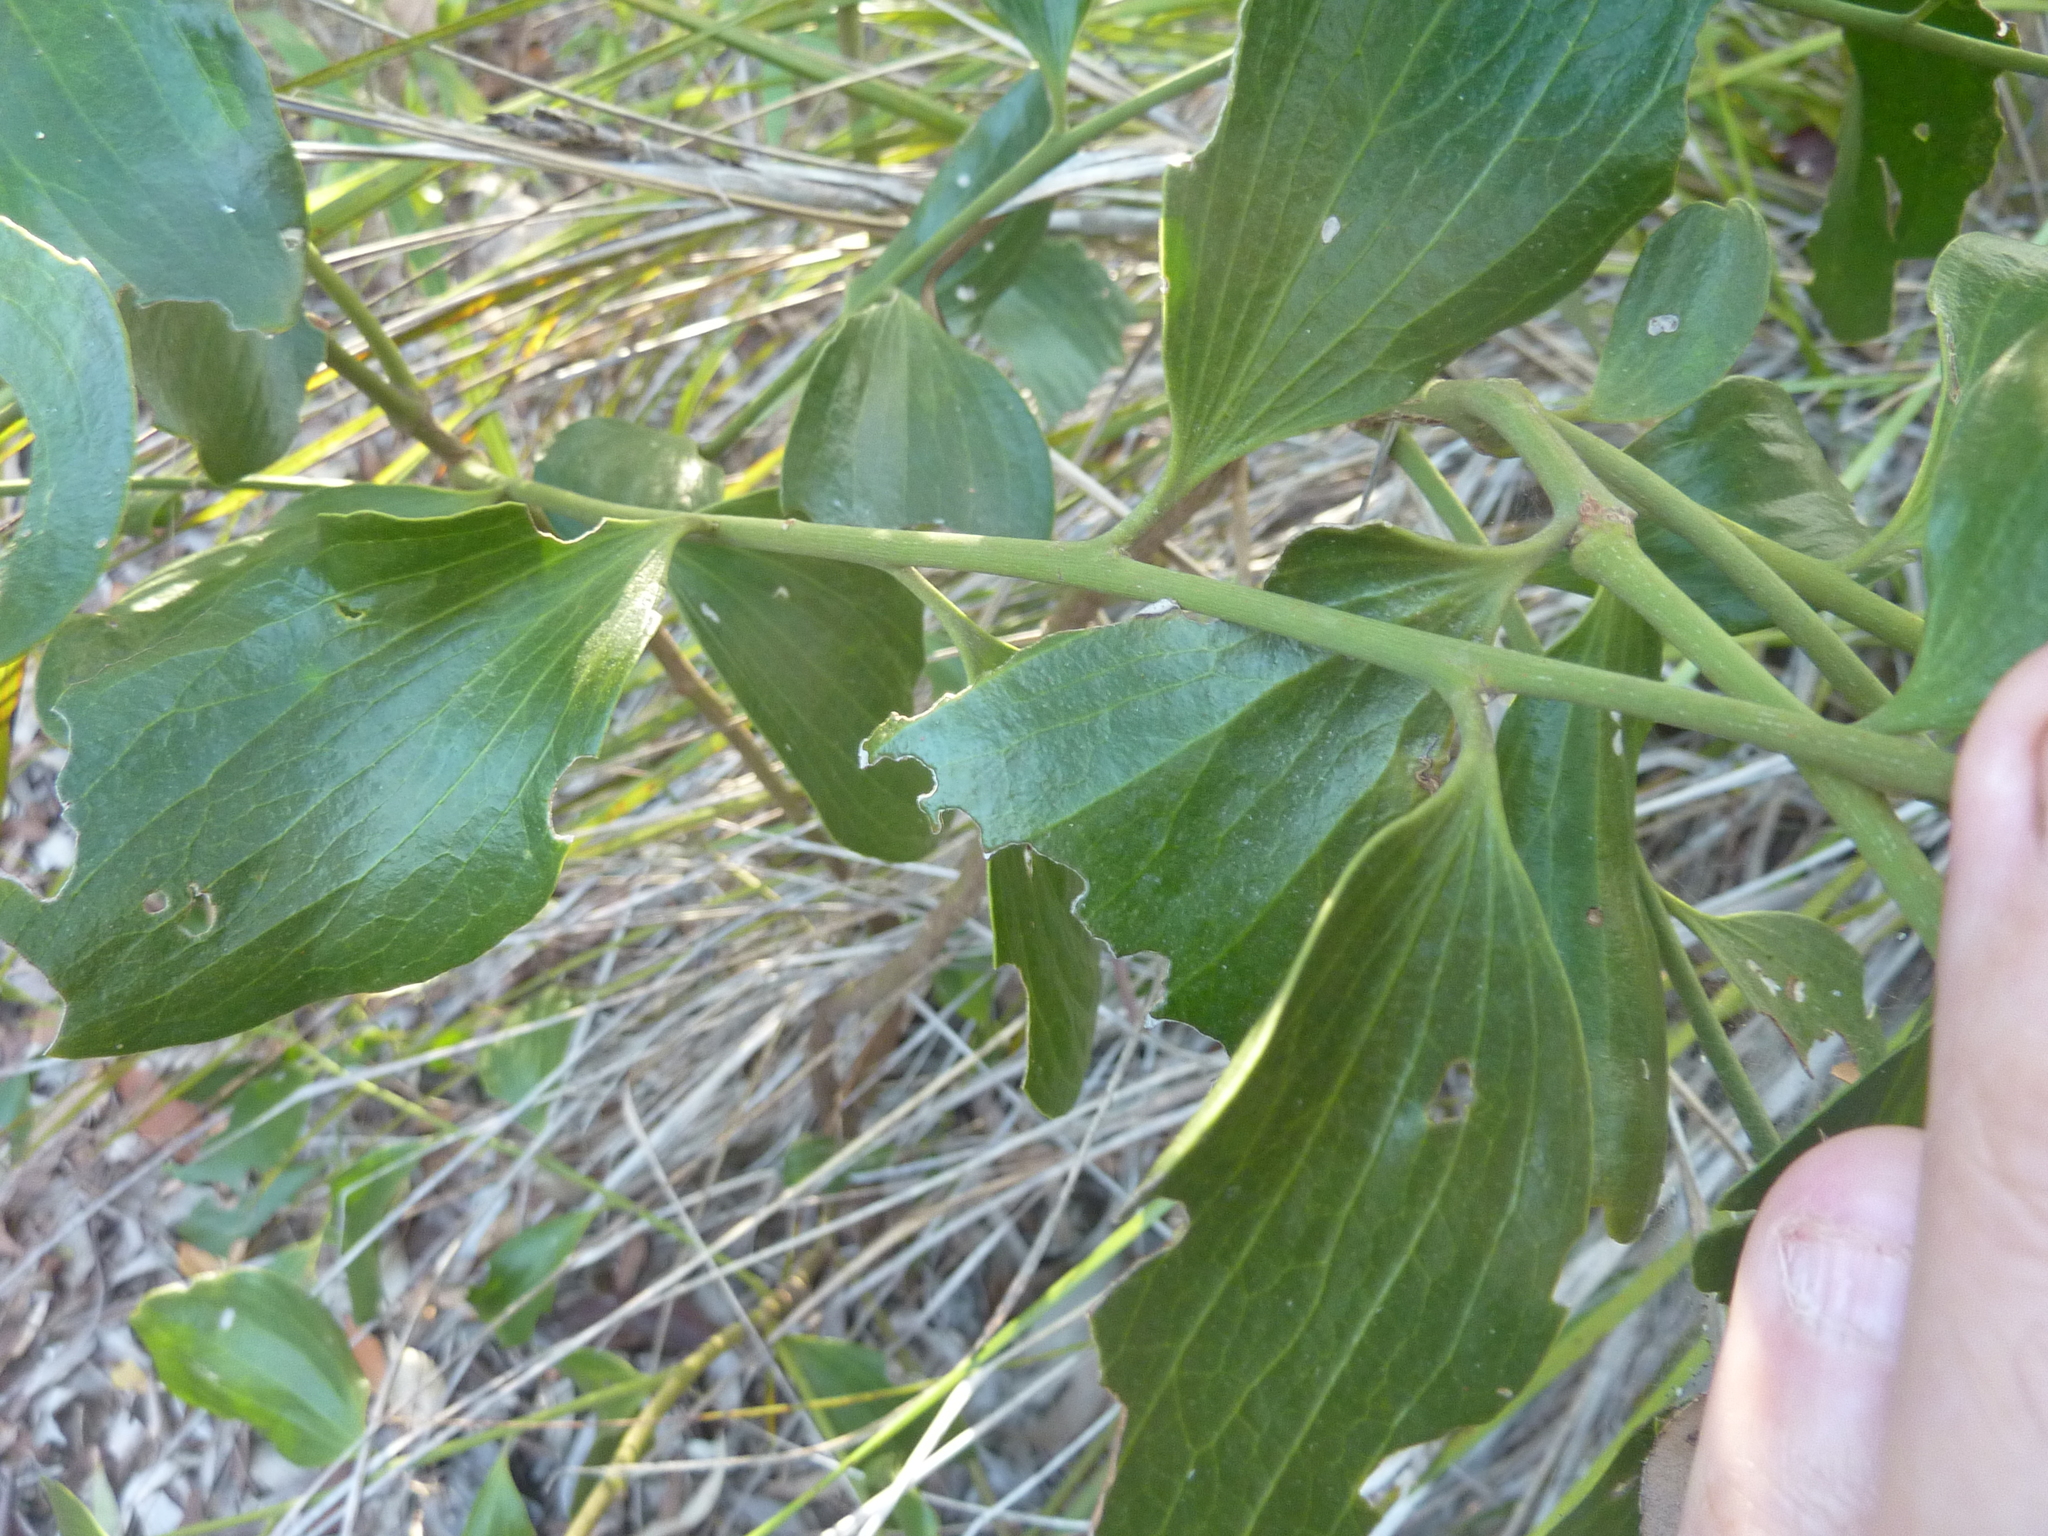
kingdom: Plantae
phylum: Tracheophyta
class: Magnoliopsida
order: Santalales
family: Santalaceae
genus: Exocarpos
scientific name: Exocarpos latifolius
